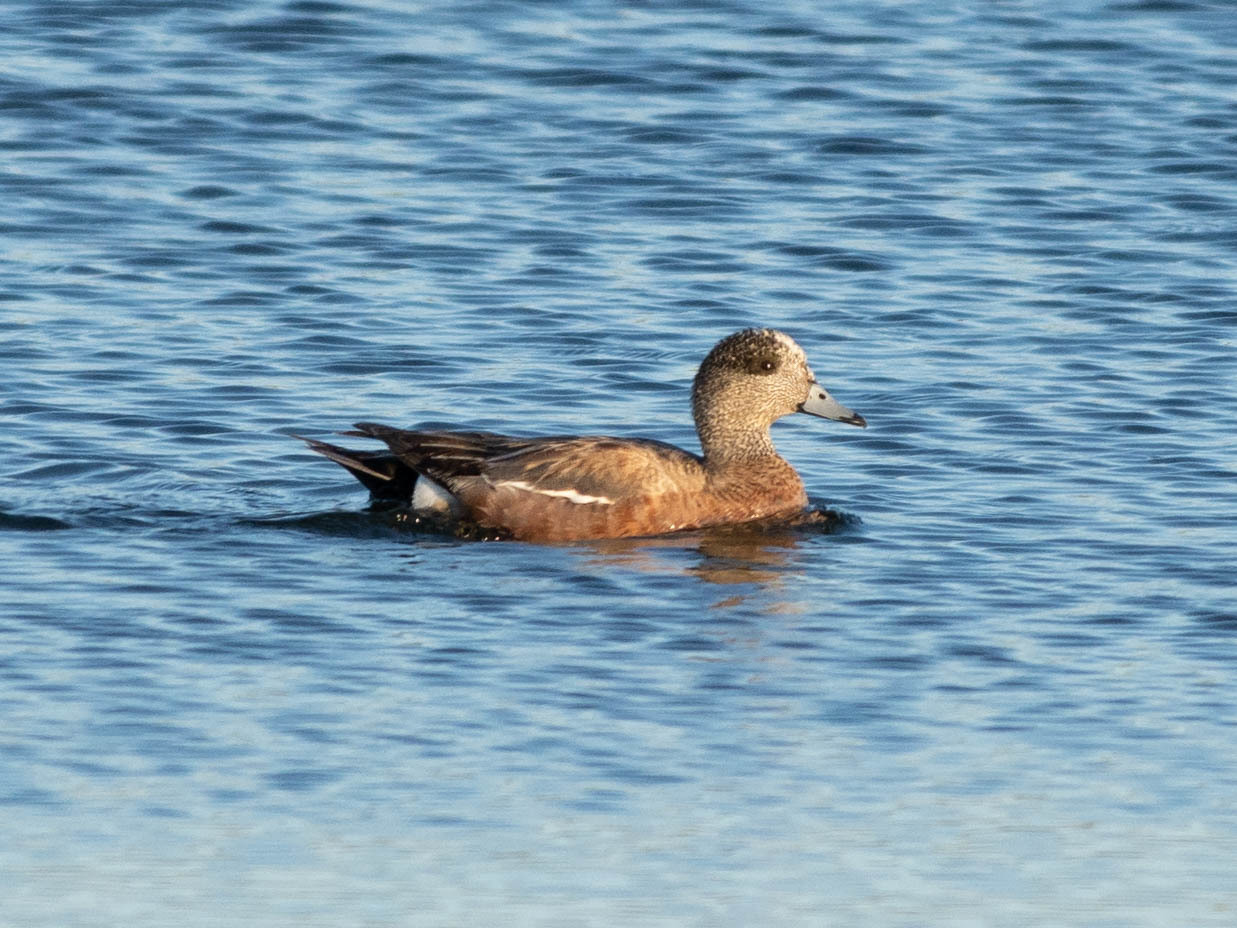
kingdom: Animalia
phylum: Chordata
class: Aves
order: Anseriformes
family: Anatidae
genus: Mareca
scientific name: Mareca americana
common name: American wigeon
